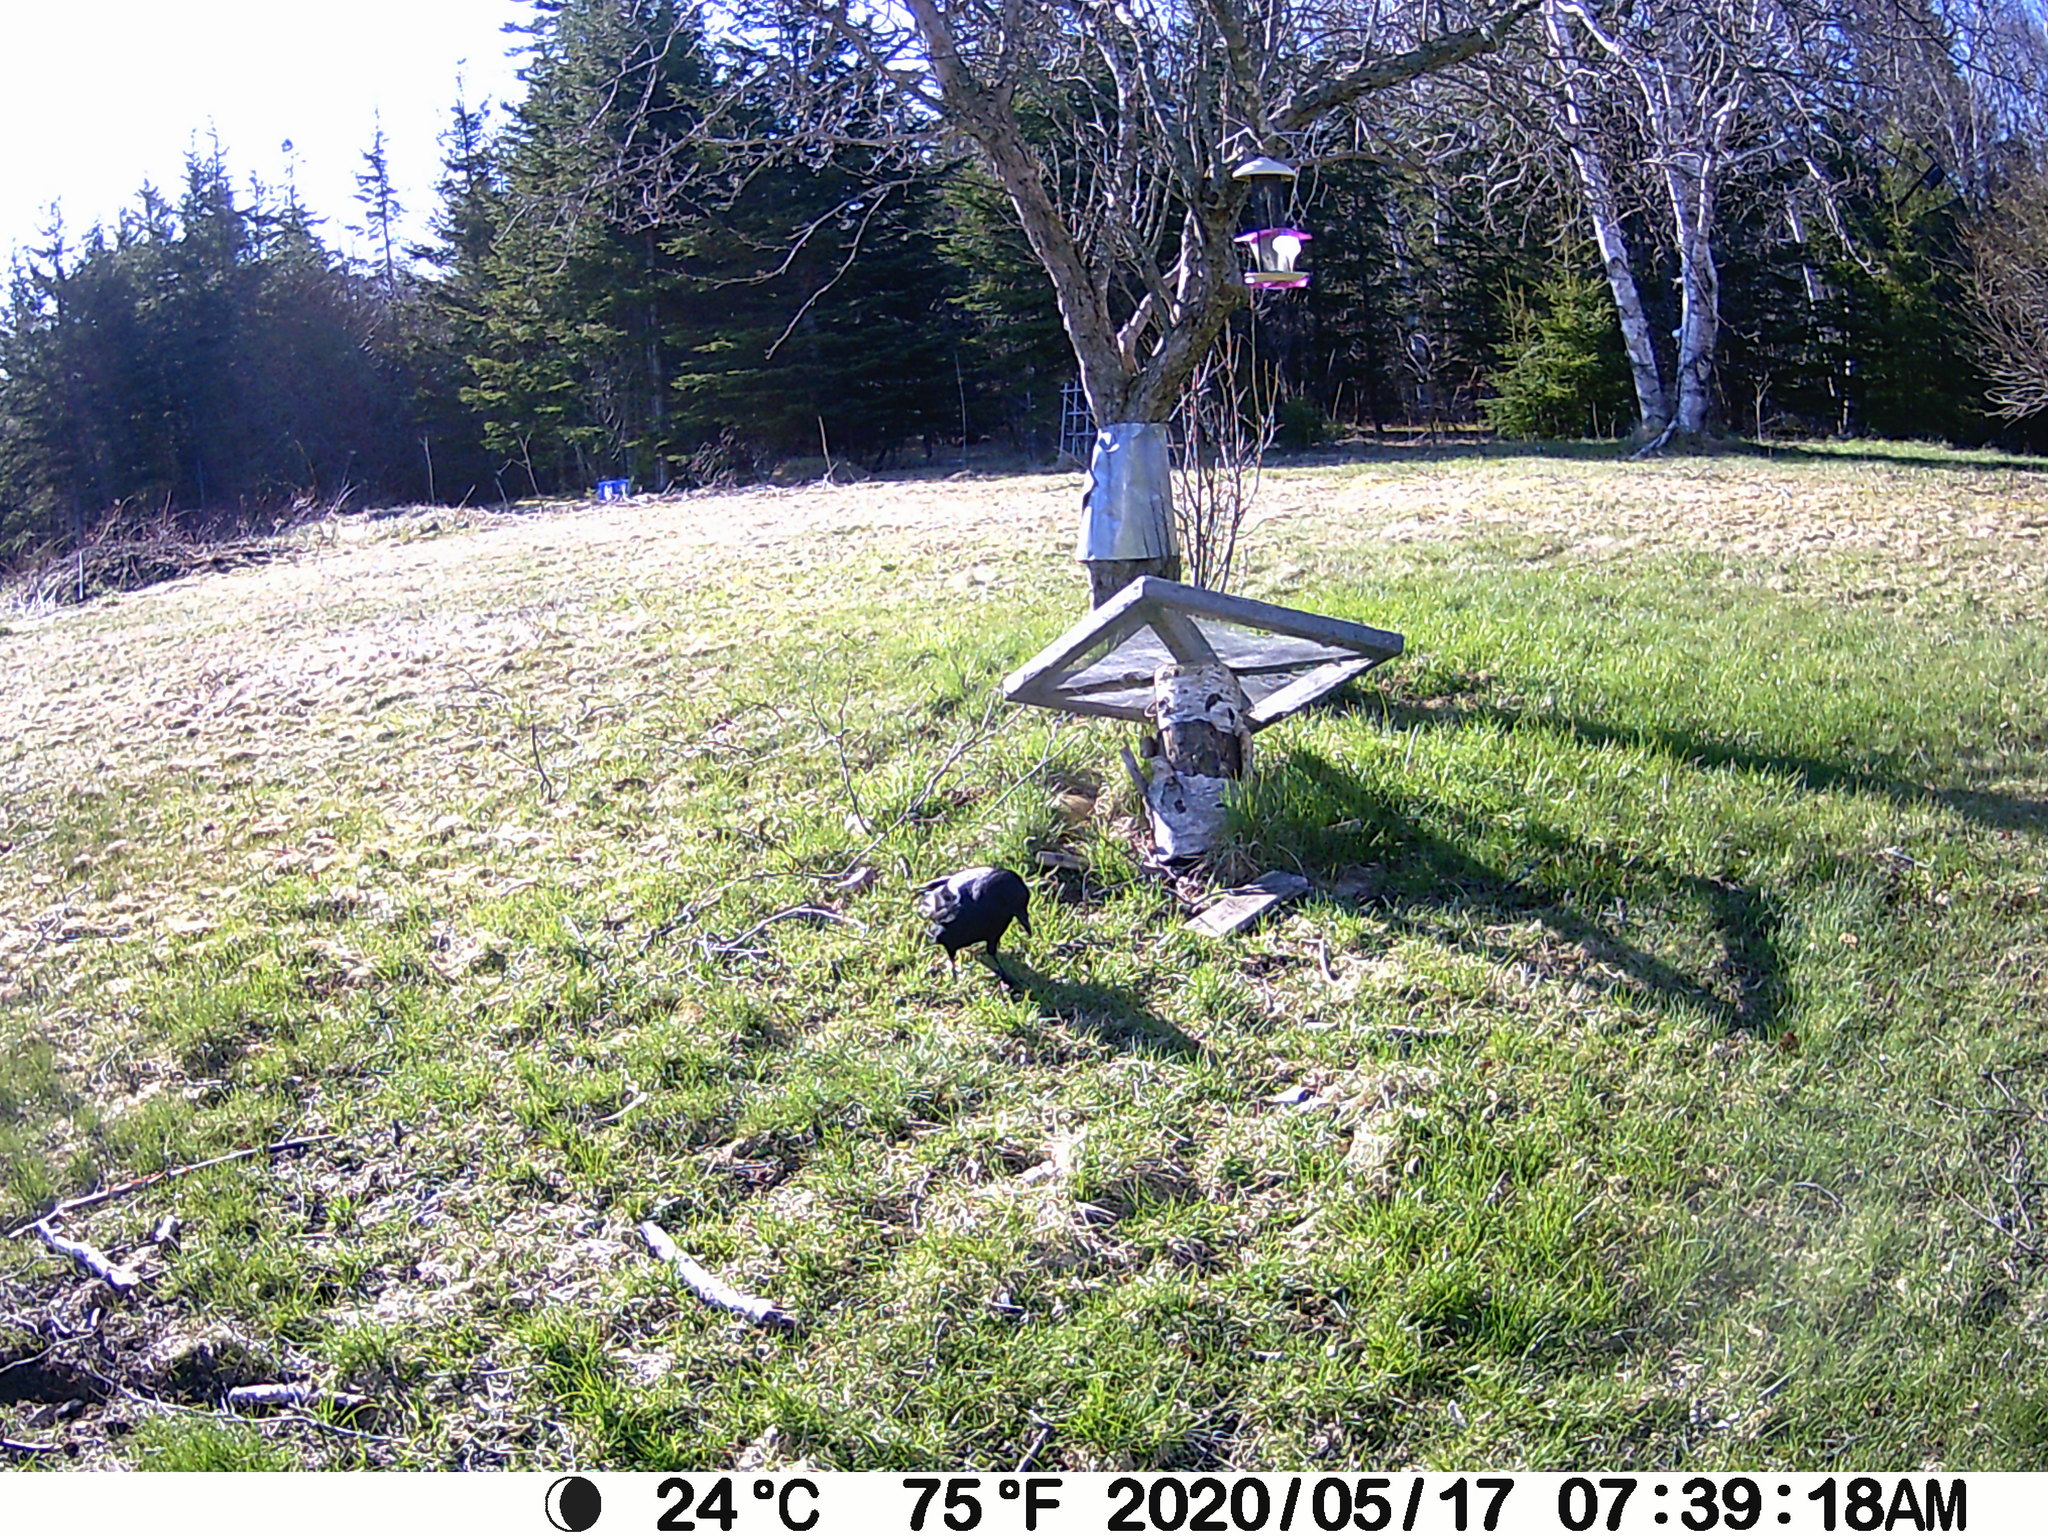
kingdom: Animalia
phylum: Chordata
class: Aves
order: Passeriformes
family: Corvidae
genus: Corvus
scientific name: Corvus brachyrhynchos
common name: American crow
